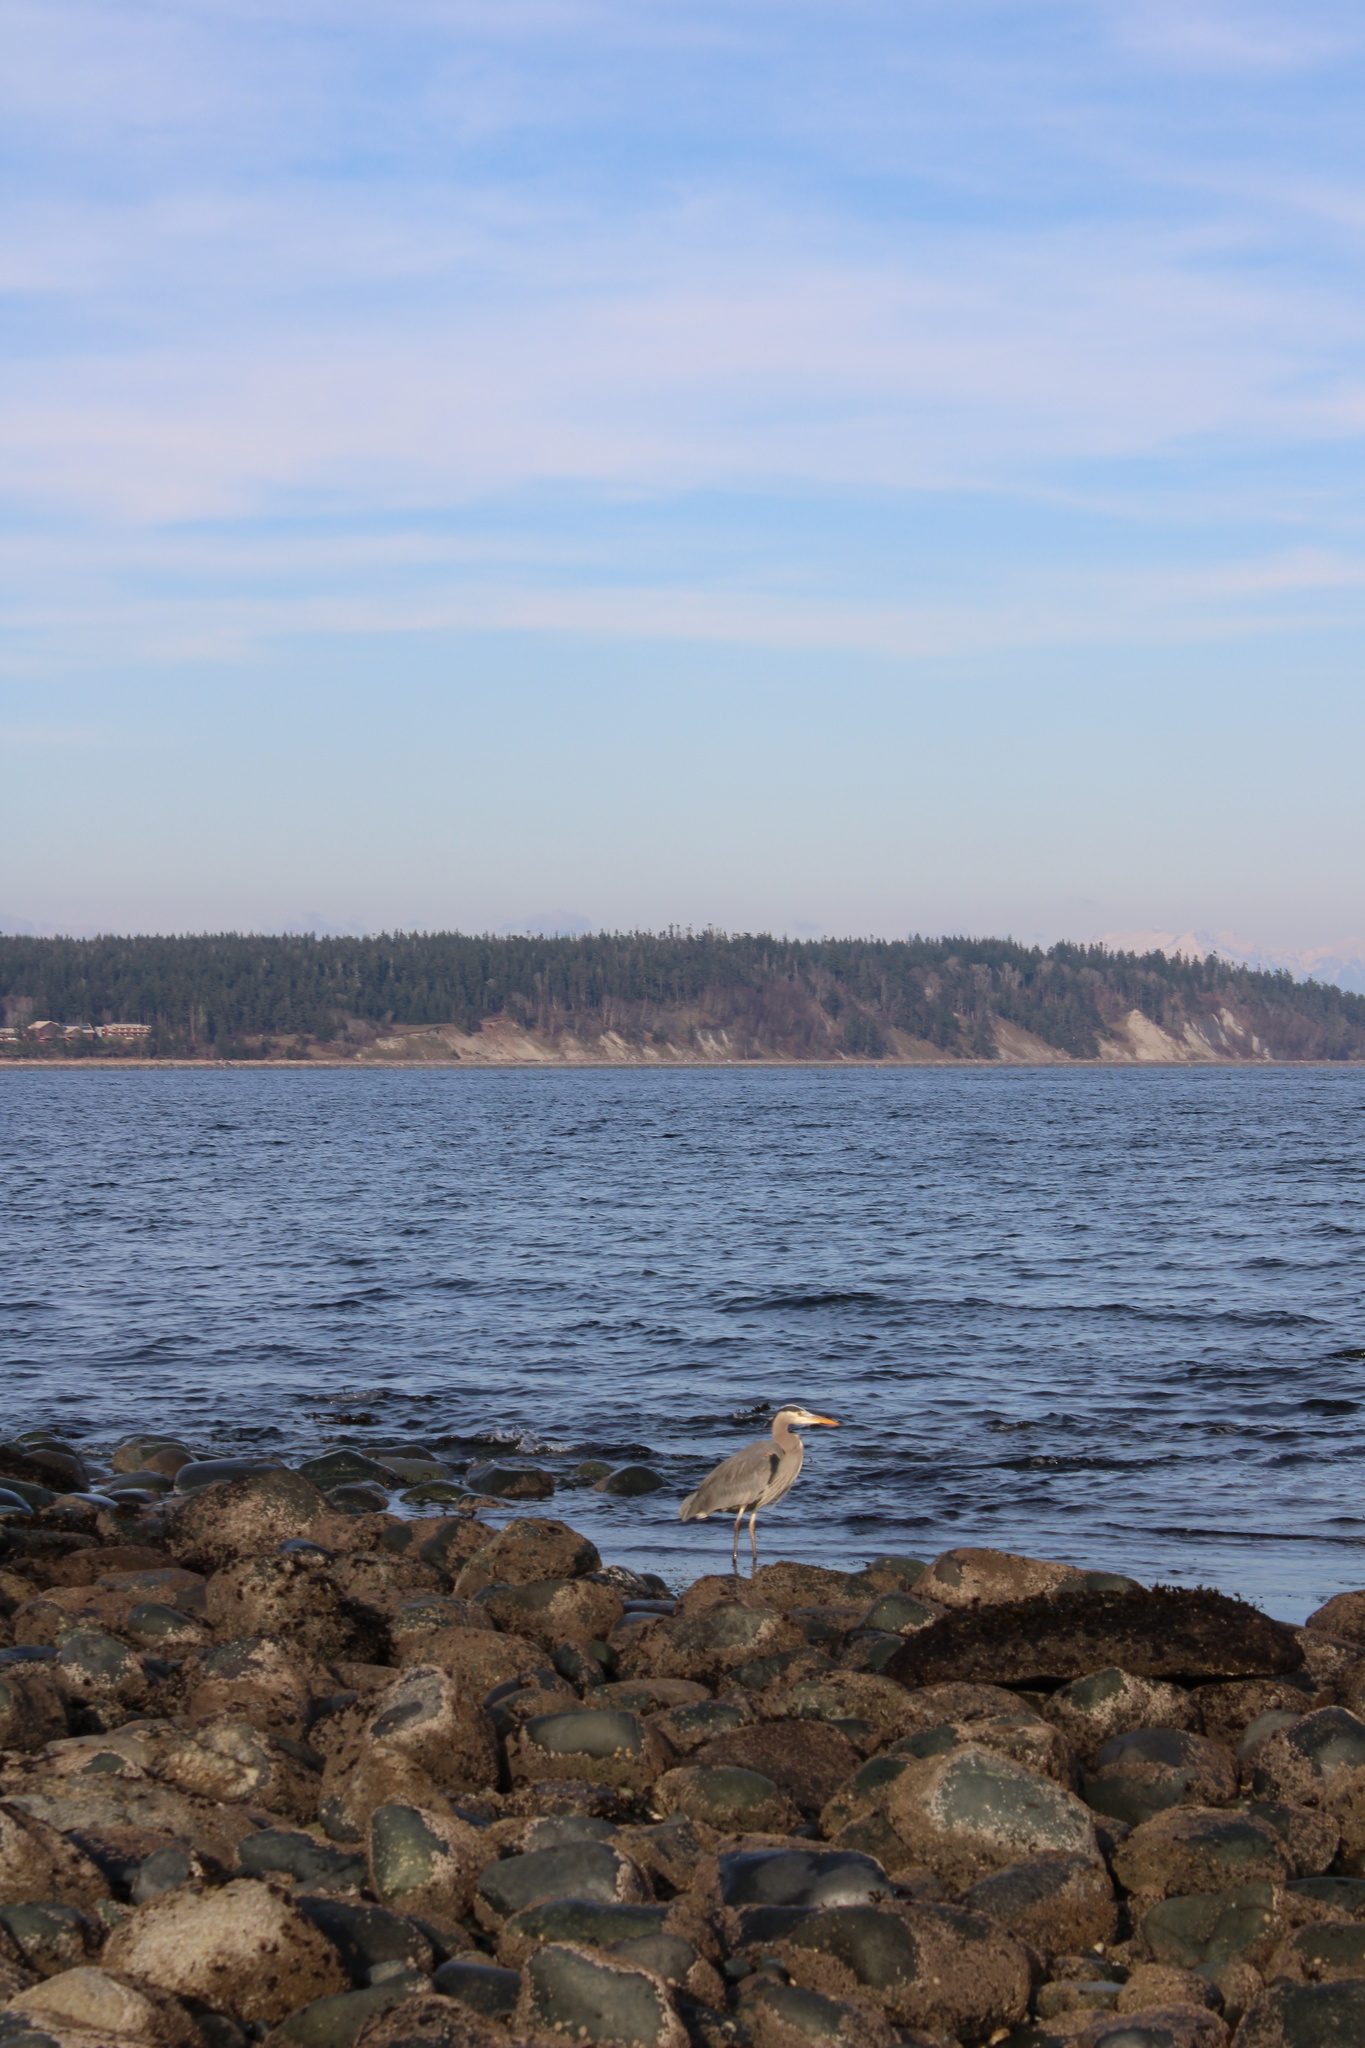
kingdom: Animalia
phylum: Chordata
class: Aves
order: Pelecaniformes
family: Ardeidae
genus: Ardea
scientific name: Ardea herodias
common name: Great blue heron
